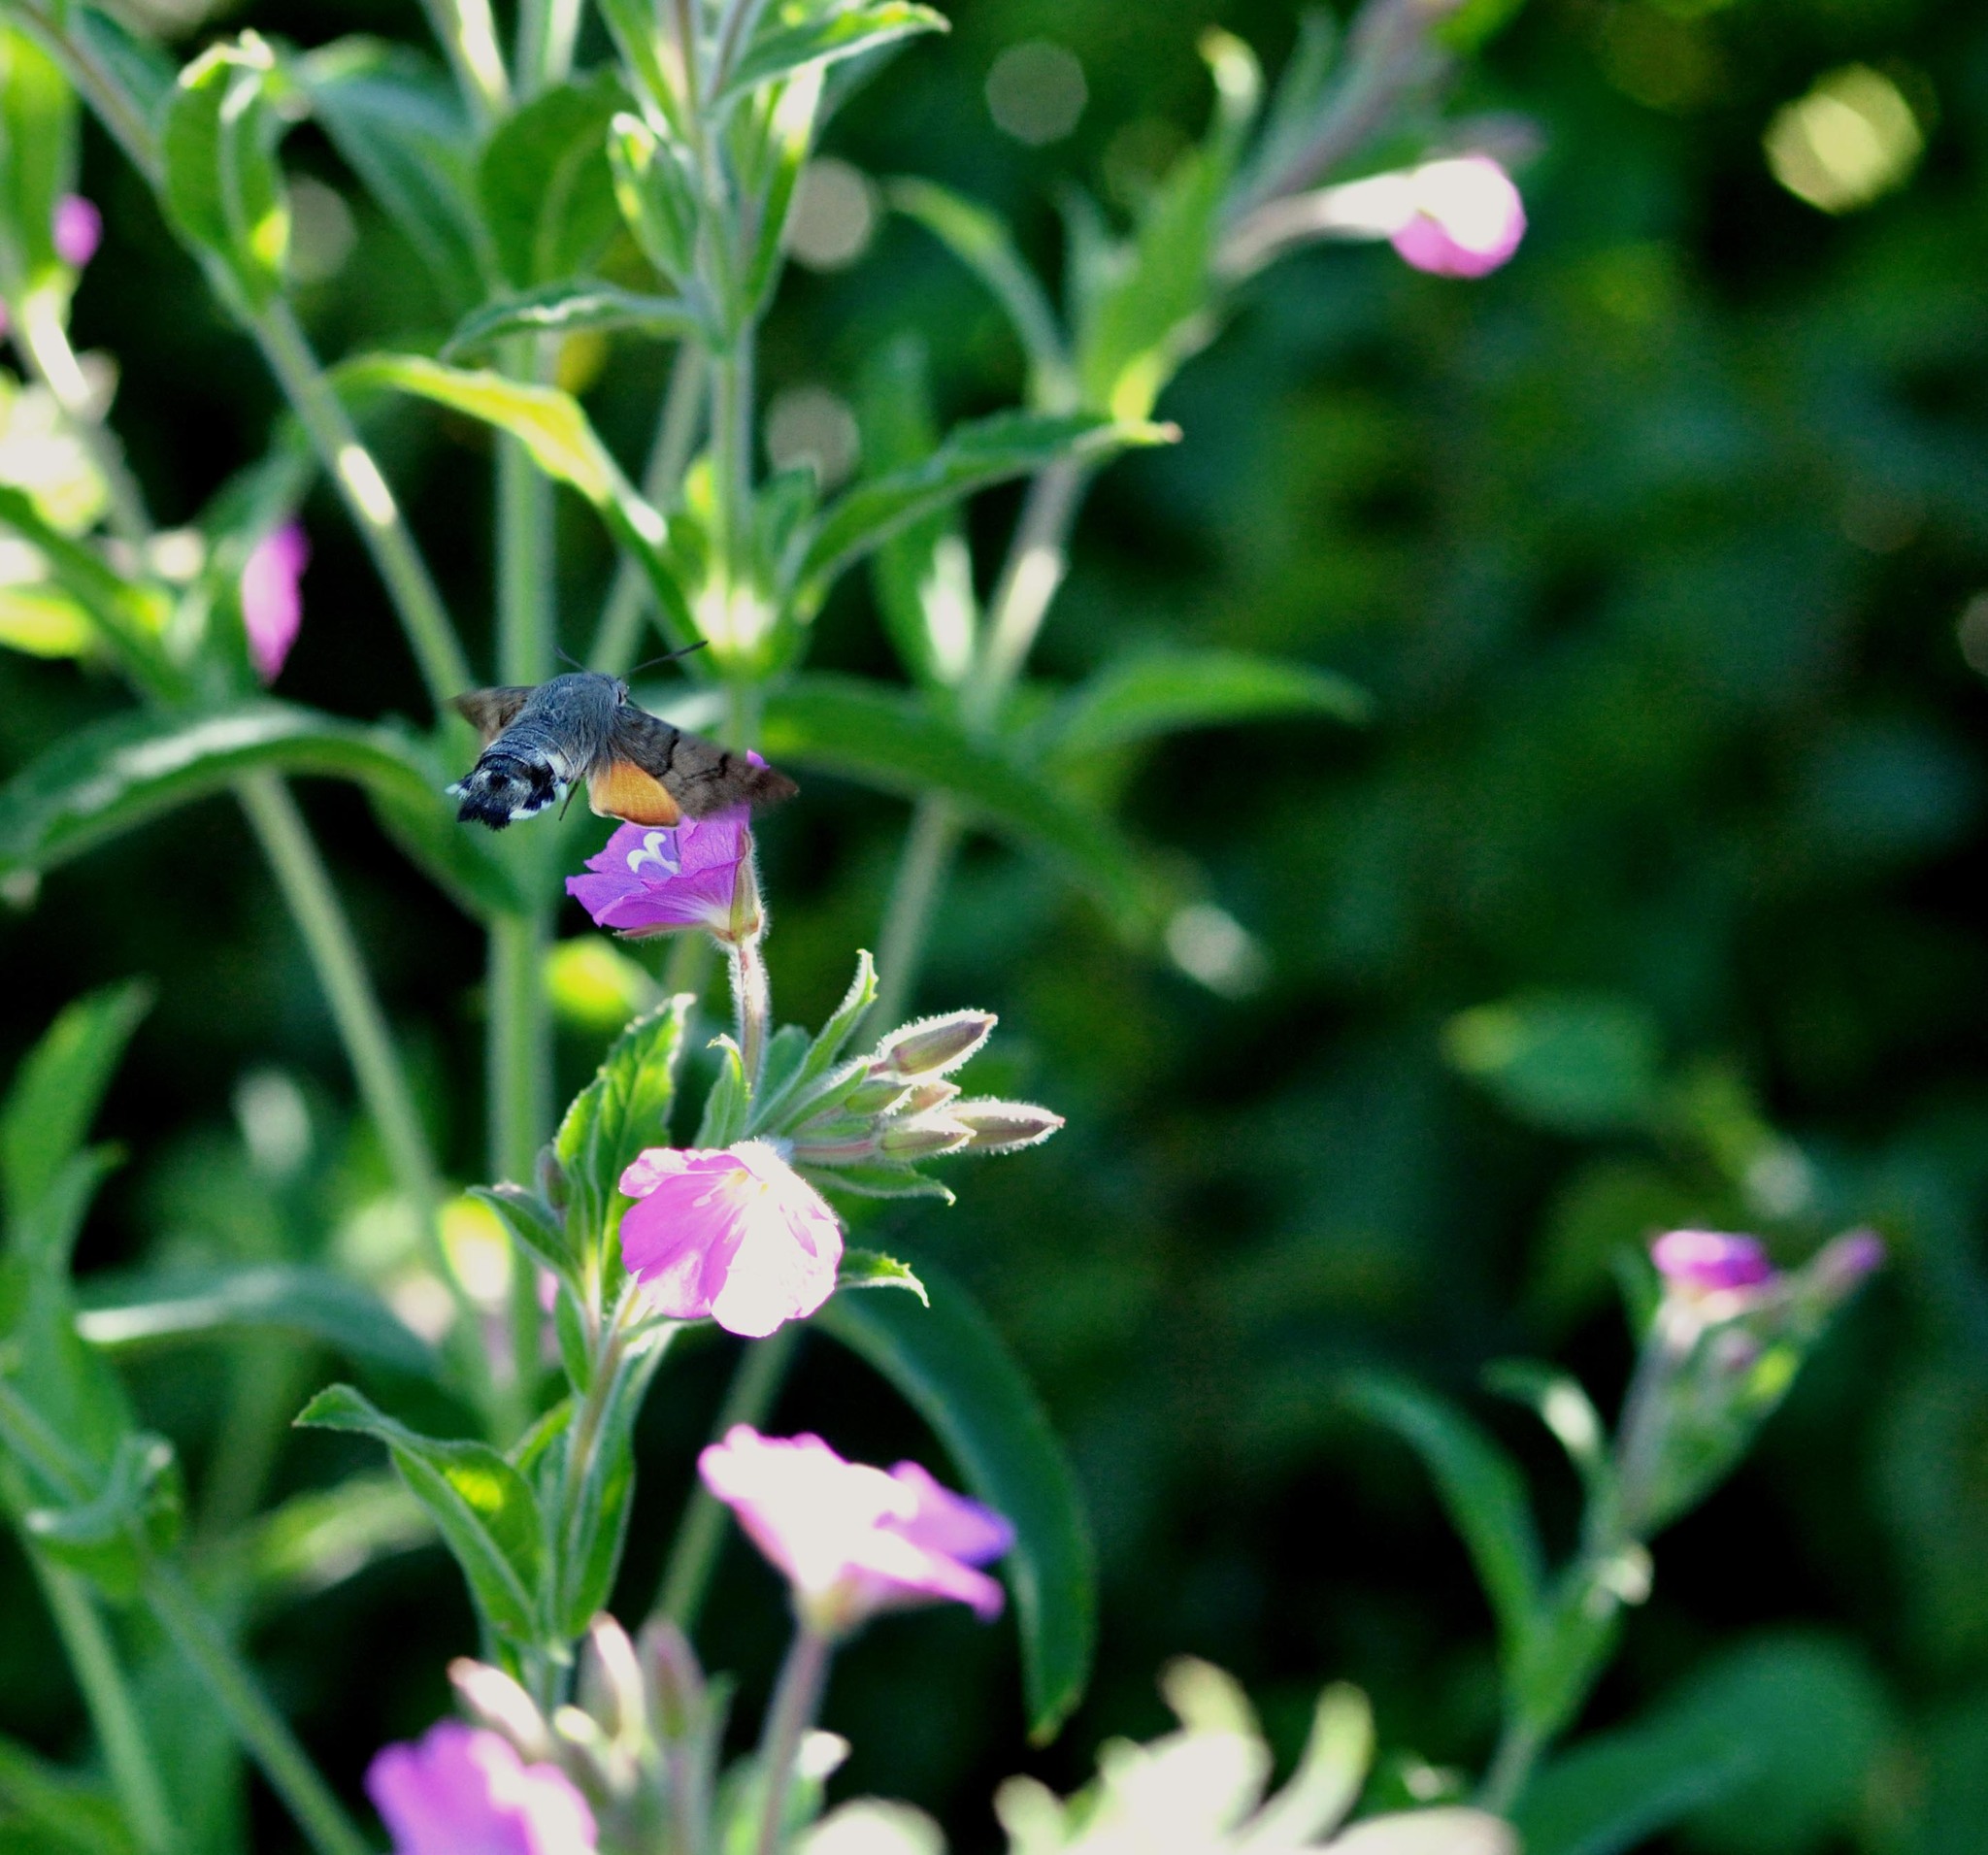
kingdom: Animalia
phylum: Arthropoda
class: Insecta
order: Lepidoptera
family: Sphingidae
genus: Macroglossum
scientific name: Macroglossum stellatarum
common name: Humming-bird hawk-moth
